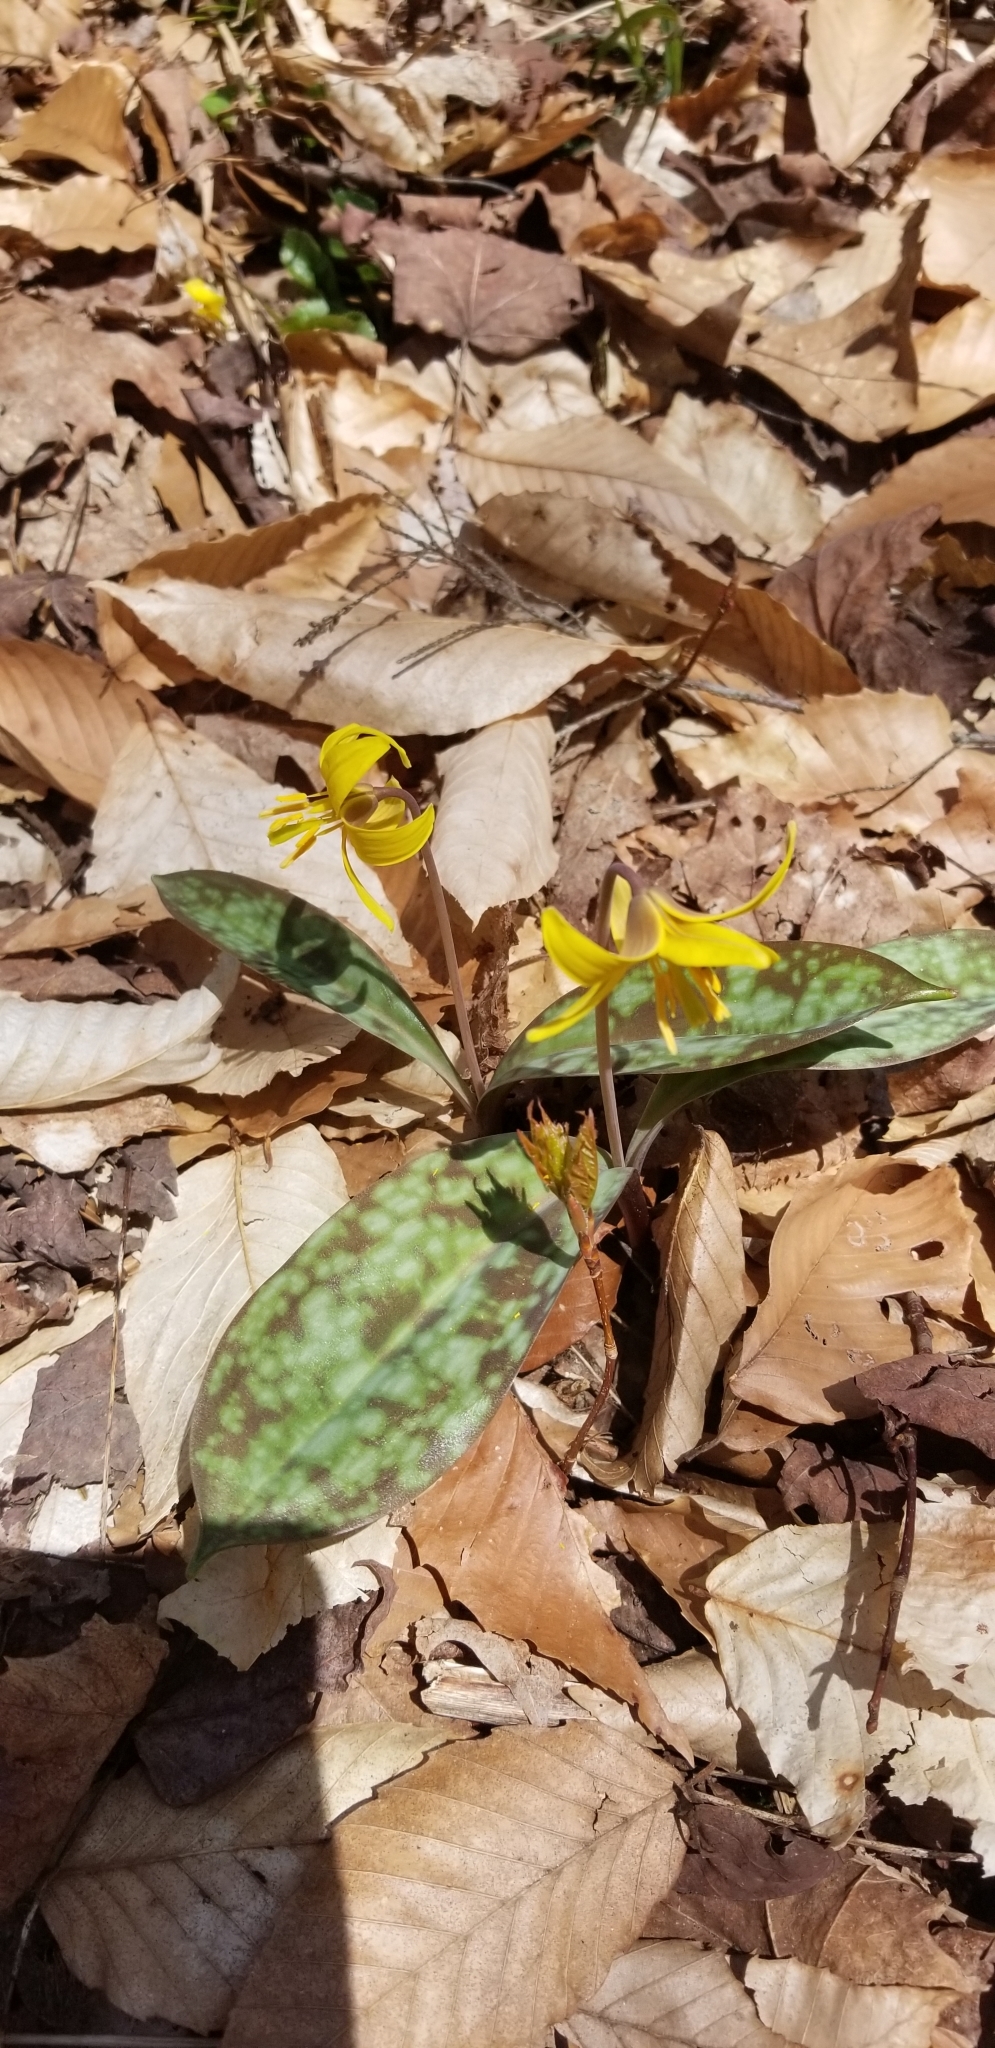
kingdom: Plantae
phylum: Tracheophyta
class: Liliopsida
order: Liliales
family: Liliaceae
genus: Erythronium
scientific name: Erythronium americanum
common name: Yellow adder's-tongue
